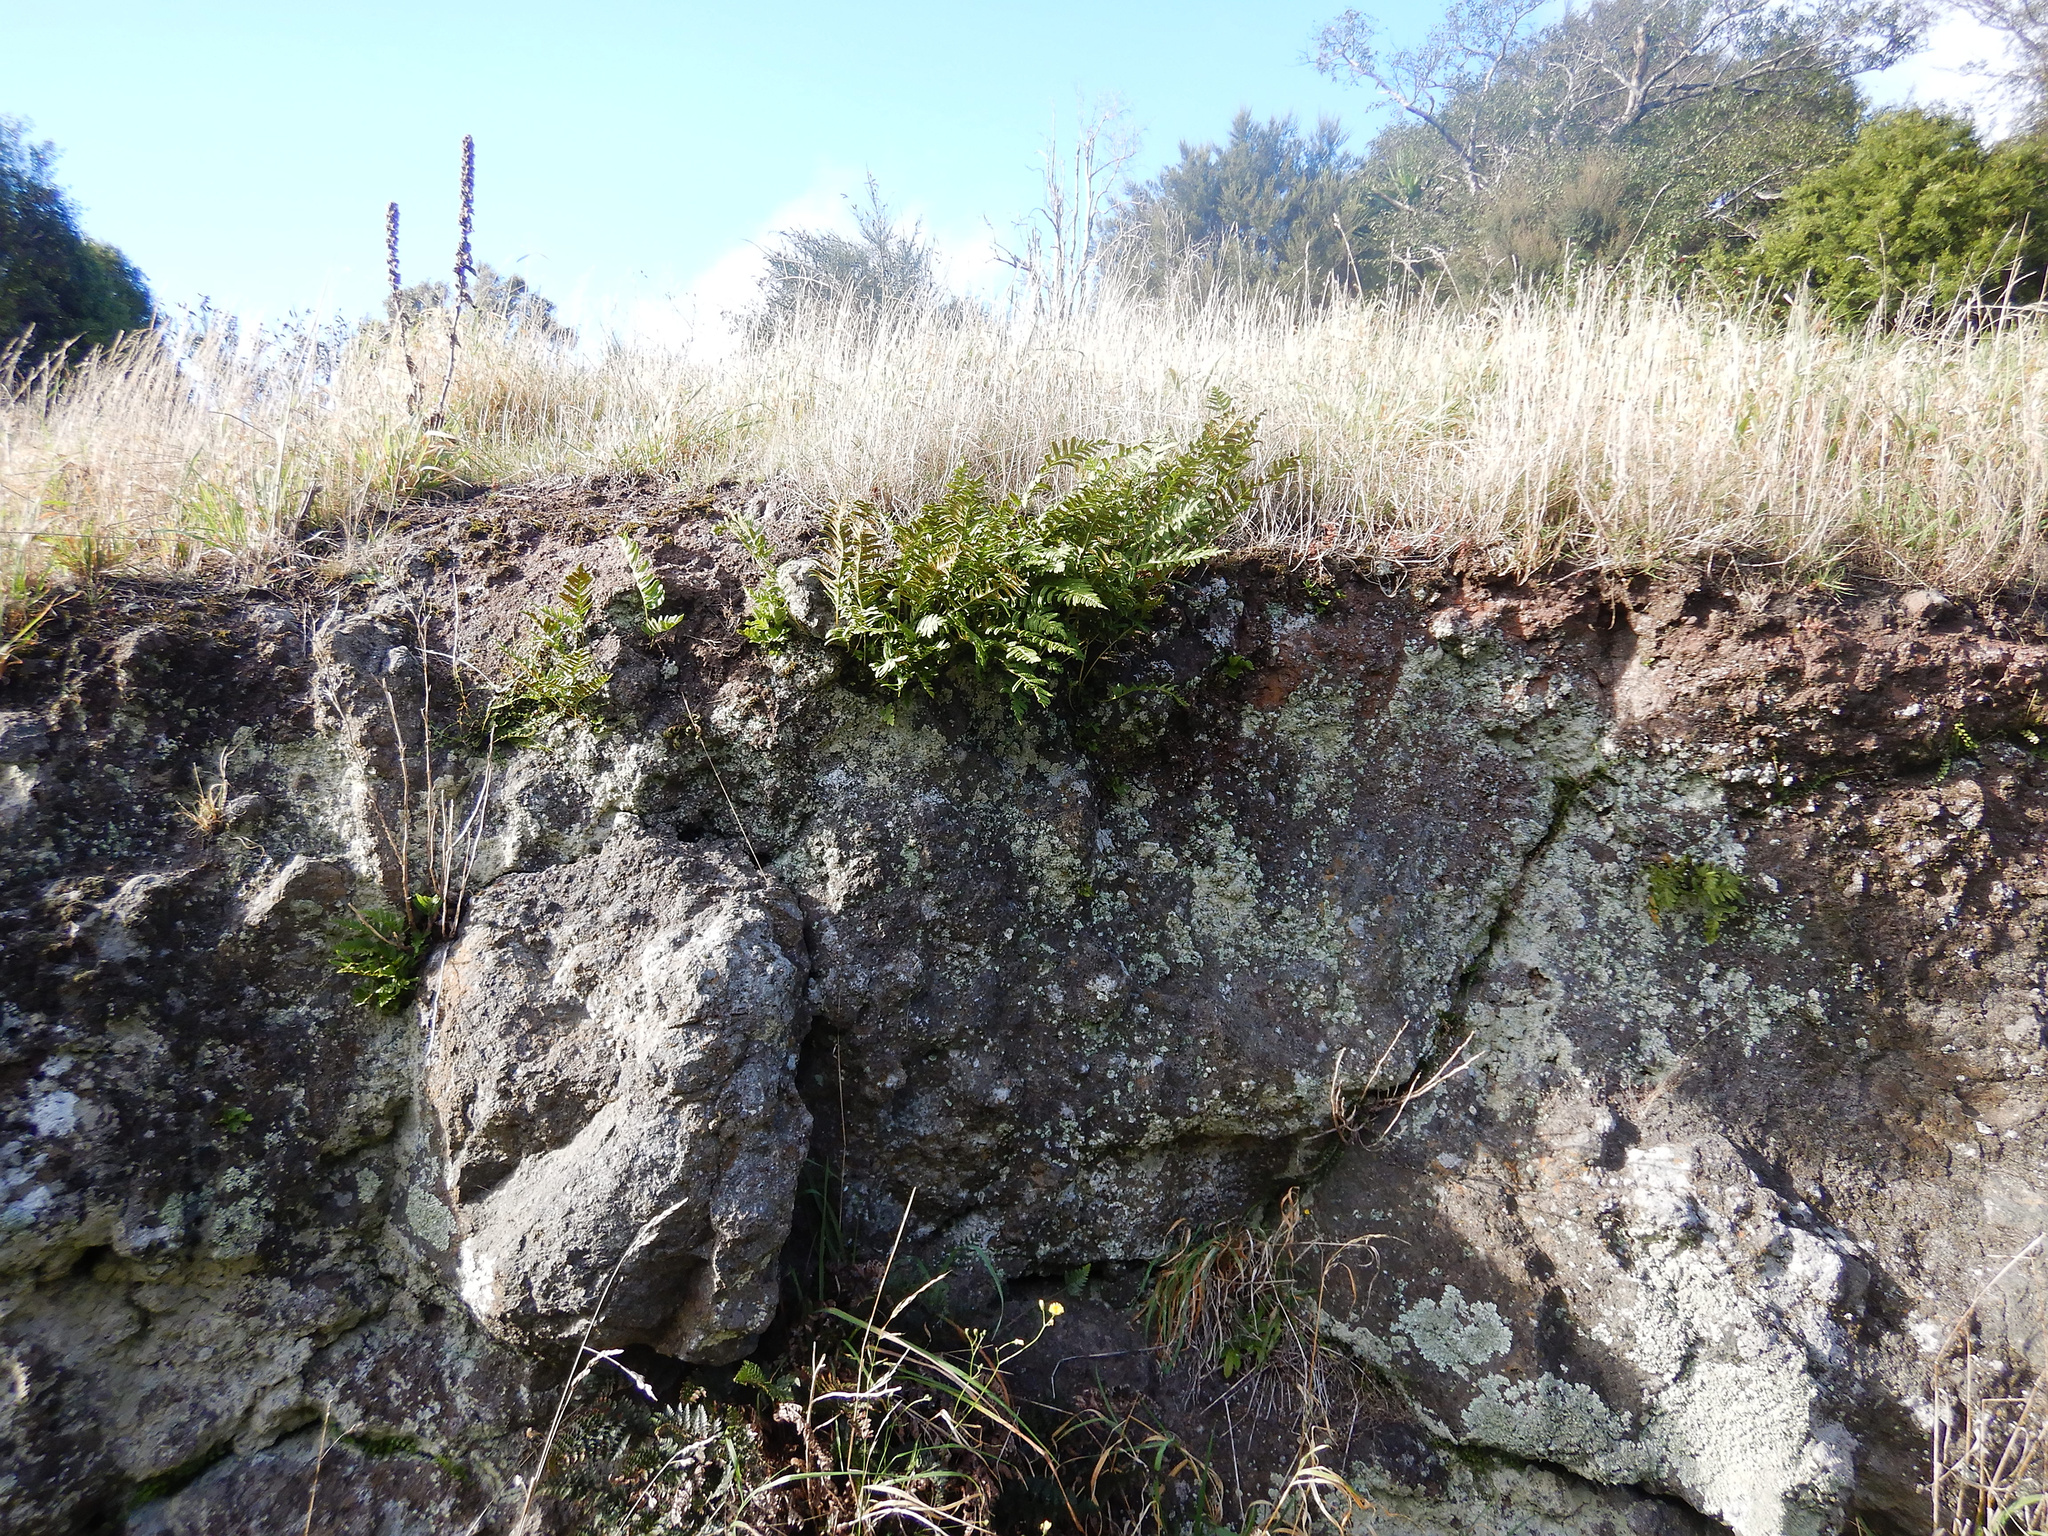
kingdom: Plantae
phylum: Tracheophyta
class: Polypodiopsida
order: Polypodiales
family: Polypodiaceae
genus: Polypodium
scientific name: Polypodium vulgare
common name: Common polypody
